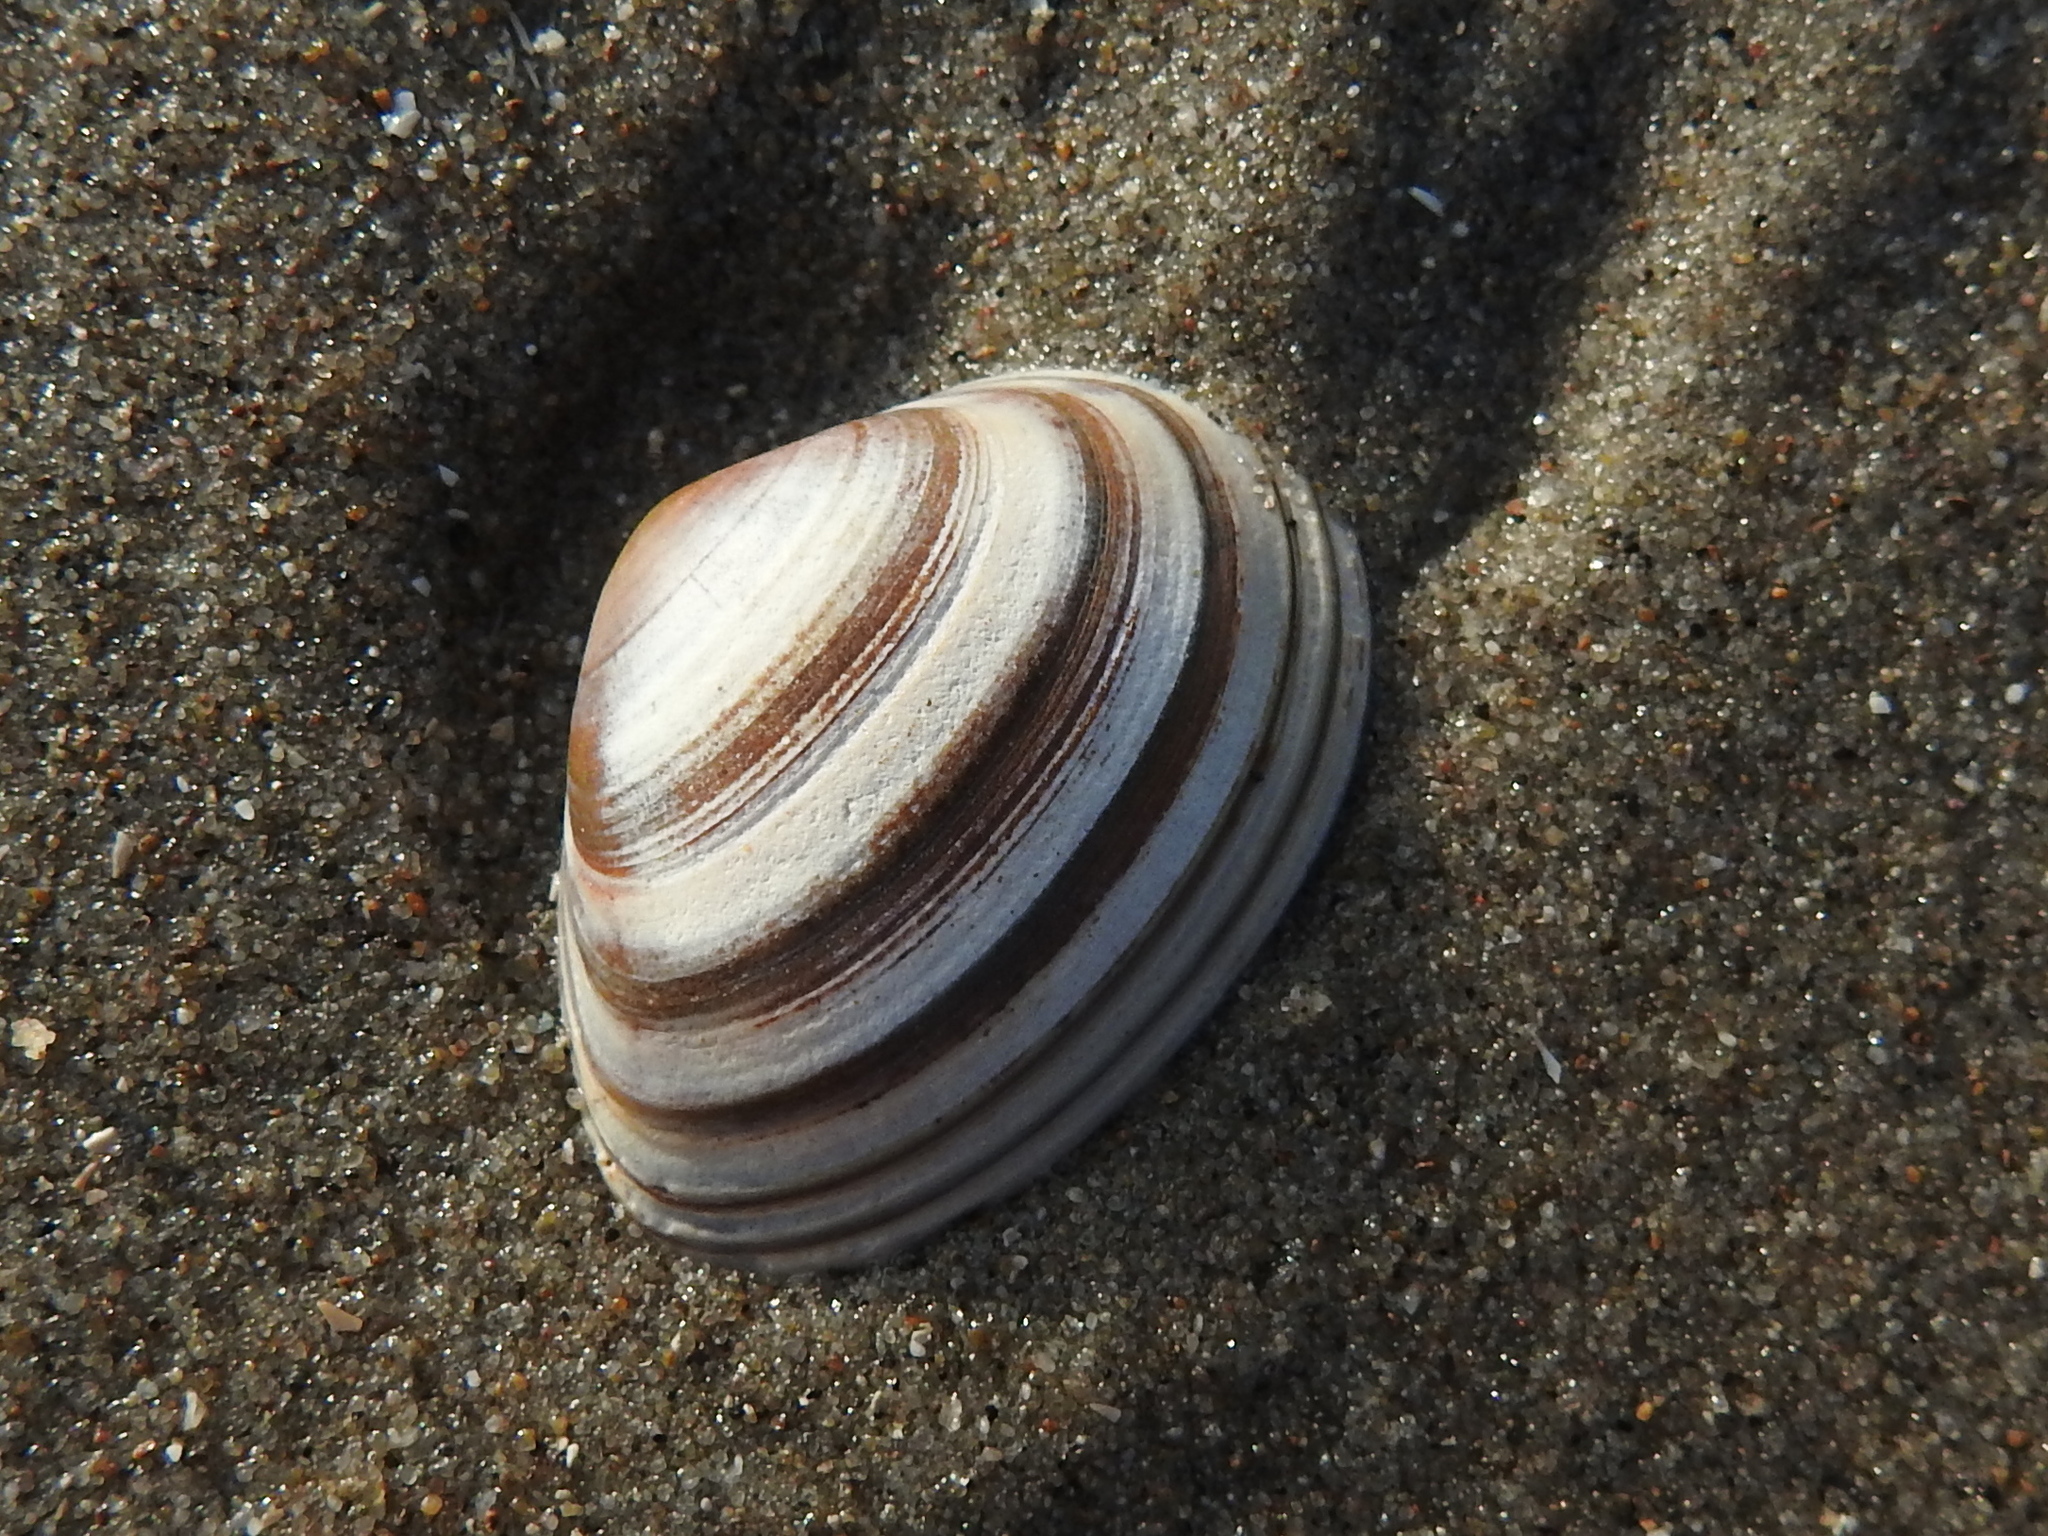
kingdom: Animalia
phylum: Mollusca
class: Bivalvia
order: Venerida
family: Mactridae
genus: Spisula
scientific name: Spisula elliptica
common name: Elliptic trough shell
